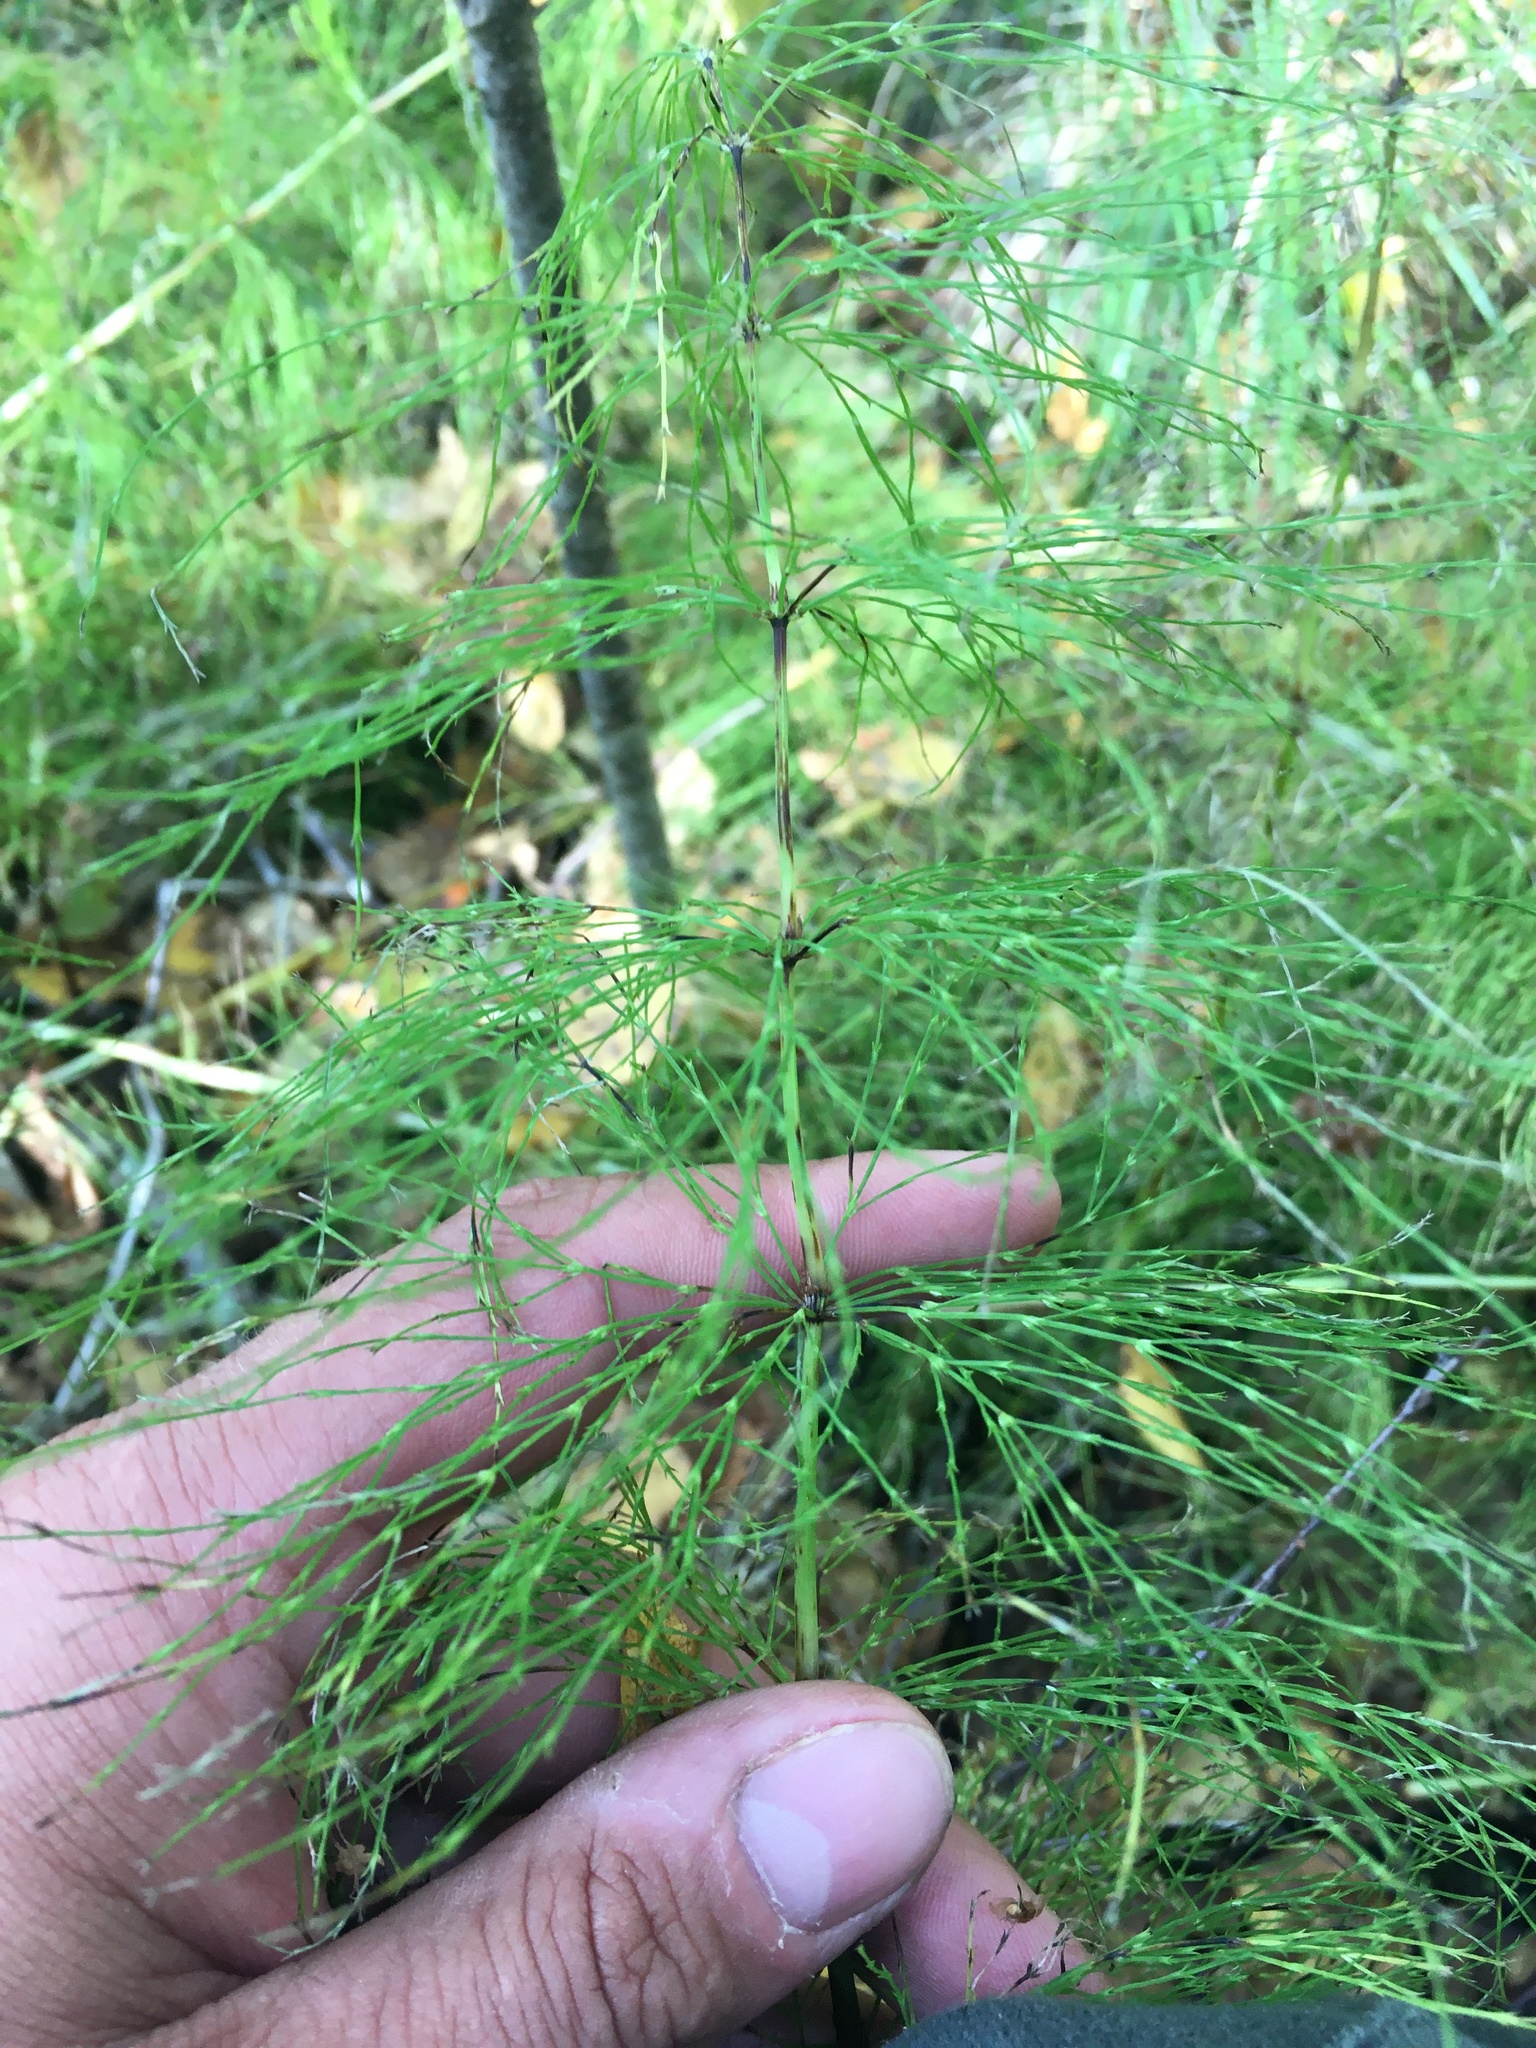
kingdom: Plantae
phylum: Tracheophyta
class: Polypodiopsida
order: Equisetales
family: Equisetaceae
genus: Equisetum
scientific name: Equisetum sylvaticum
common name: Wood horsetail
